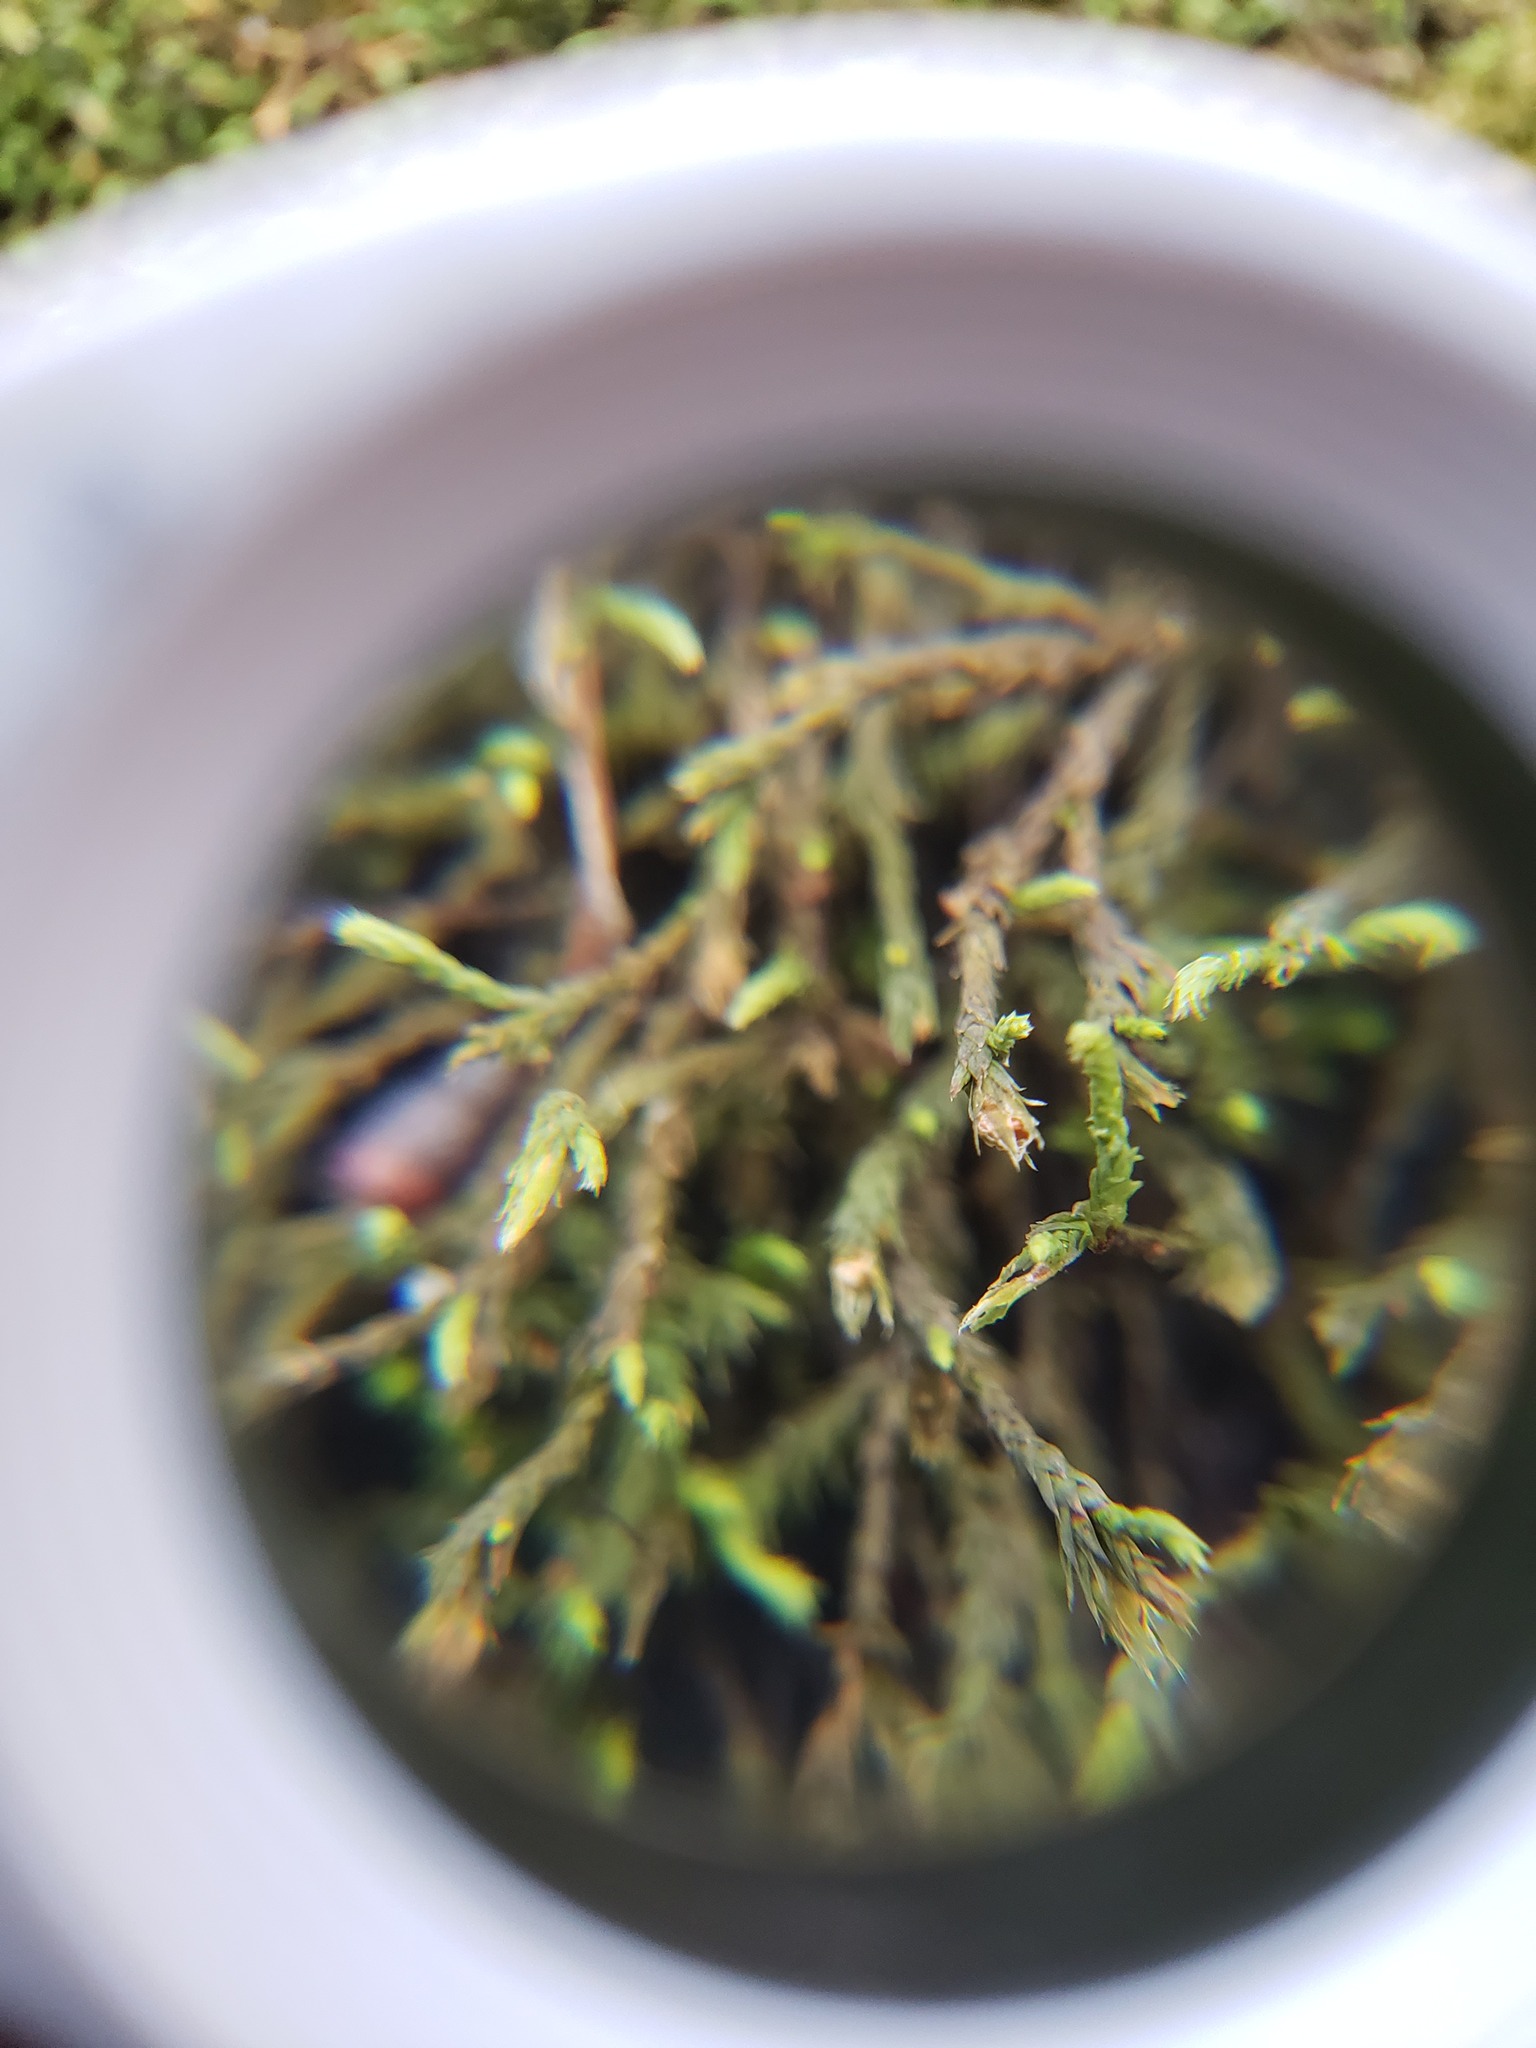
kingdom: Plantae
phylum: Bryophyta
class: Bryopsida
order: Hedwigiales
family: Hedwigiaceae
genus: Hedwigia
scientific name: Hedwigia filiformis
